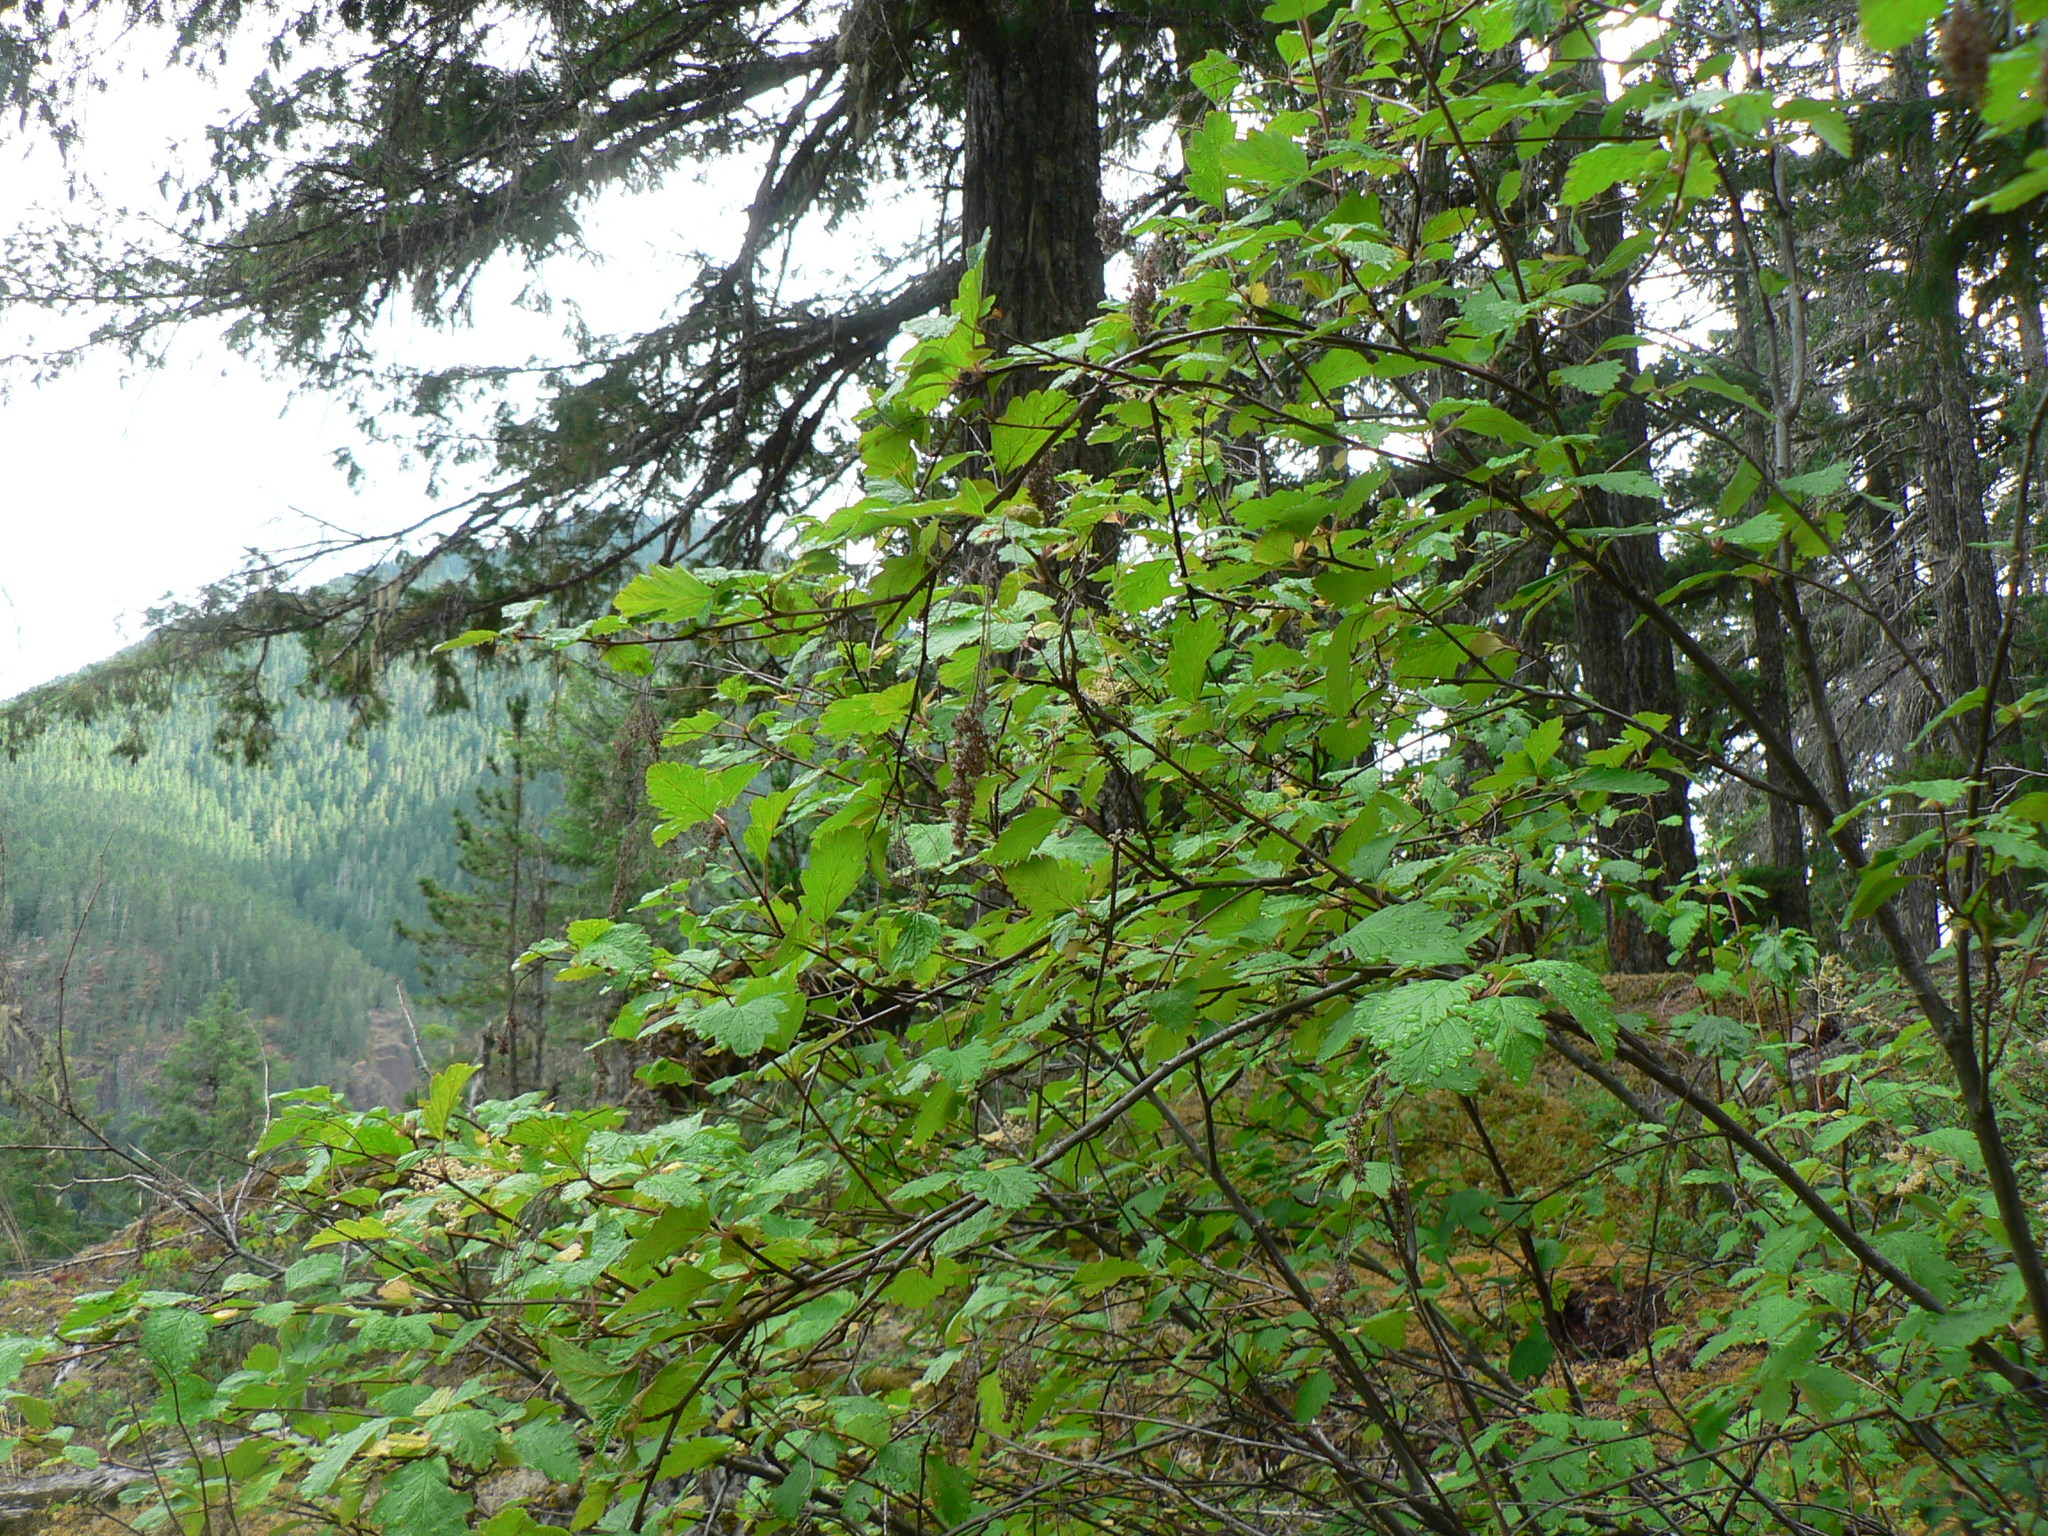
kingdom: Plantae
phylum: Tracheophyta
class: Magnoliopsida
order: Rosales
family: Rosaceae
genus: Holodiscus
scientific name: Holodiscus discolor
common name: Oceanspray
